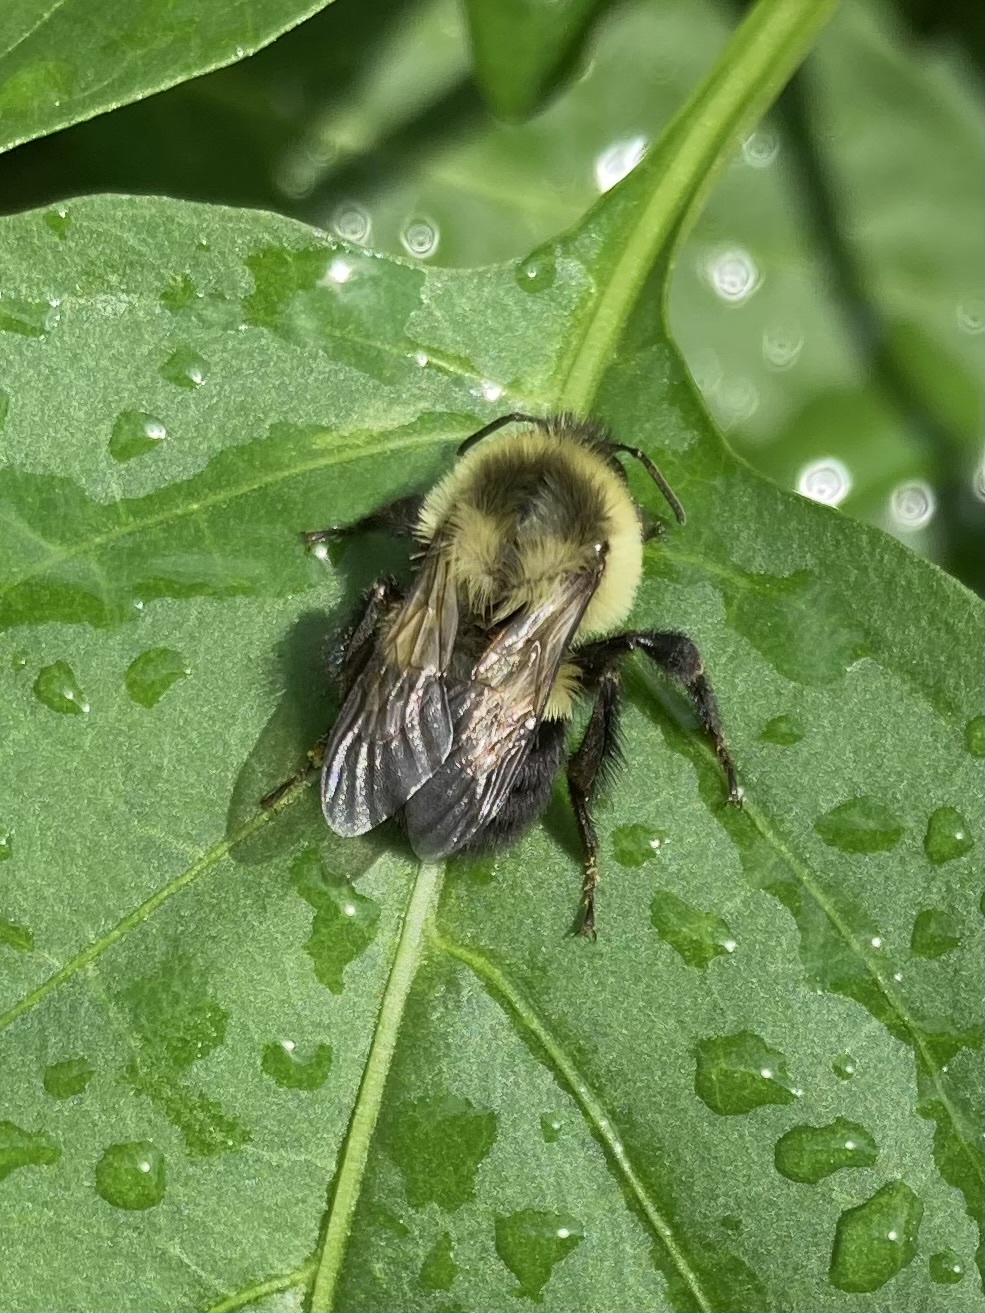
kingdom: Animalia
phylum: Arthropoda
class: Insecta
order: Hymenoptera
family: Apidae
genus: Bombus
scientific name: Bombus impatiens
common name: Common eastern bumble bee
